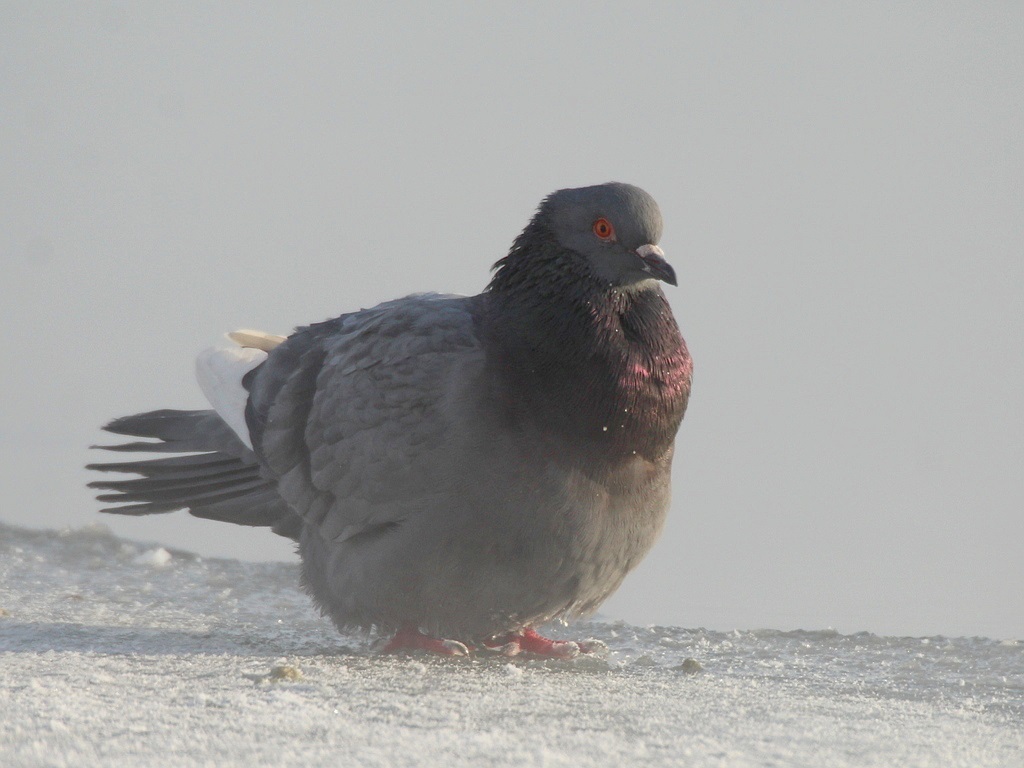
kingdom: Animalia
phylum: Chordata
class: Aves
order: Columbiformes
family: Columbidae
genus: Columba
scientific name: Columba livia
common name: Rock pigeon
